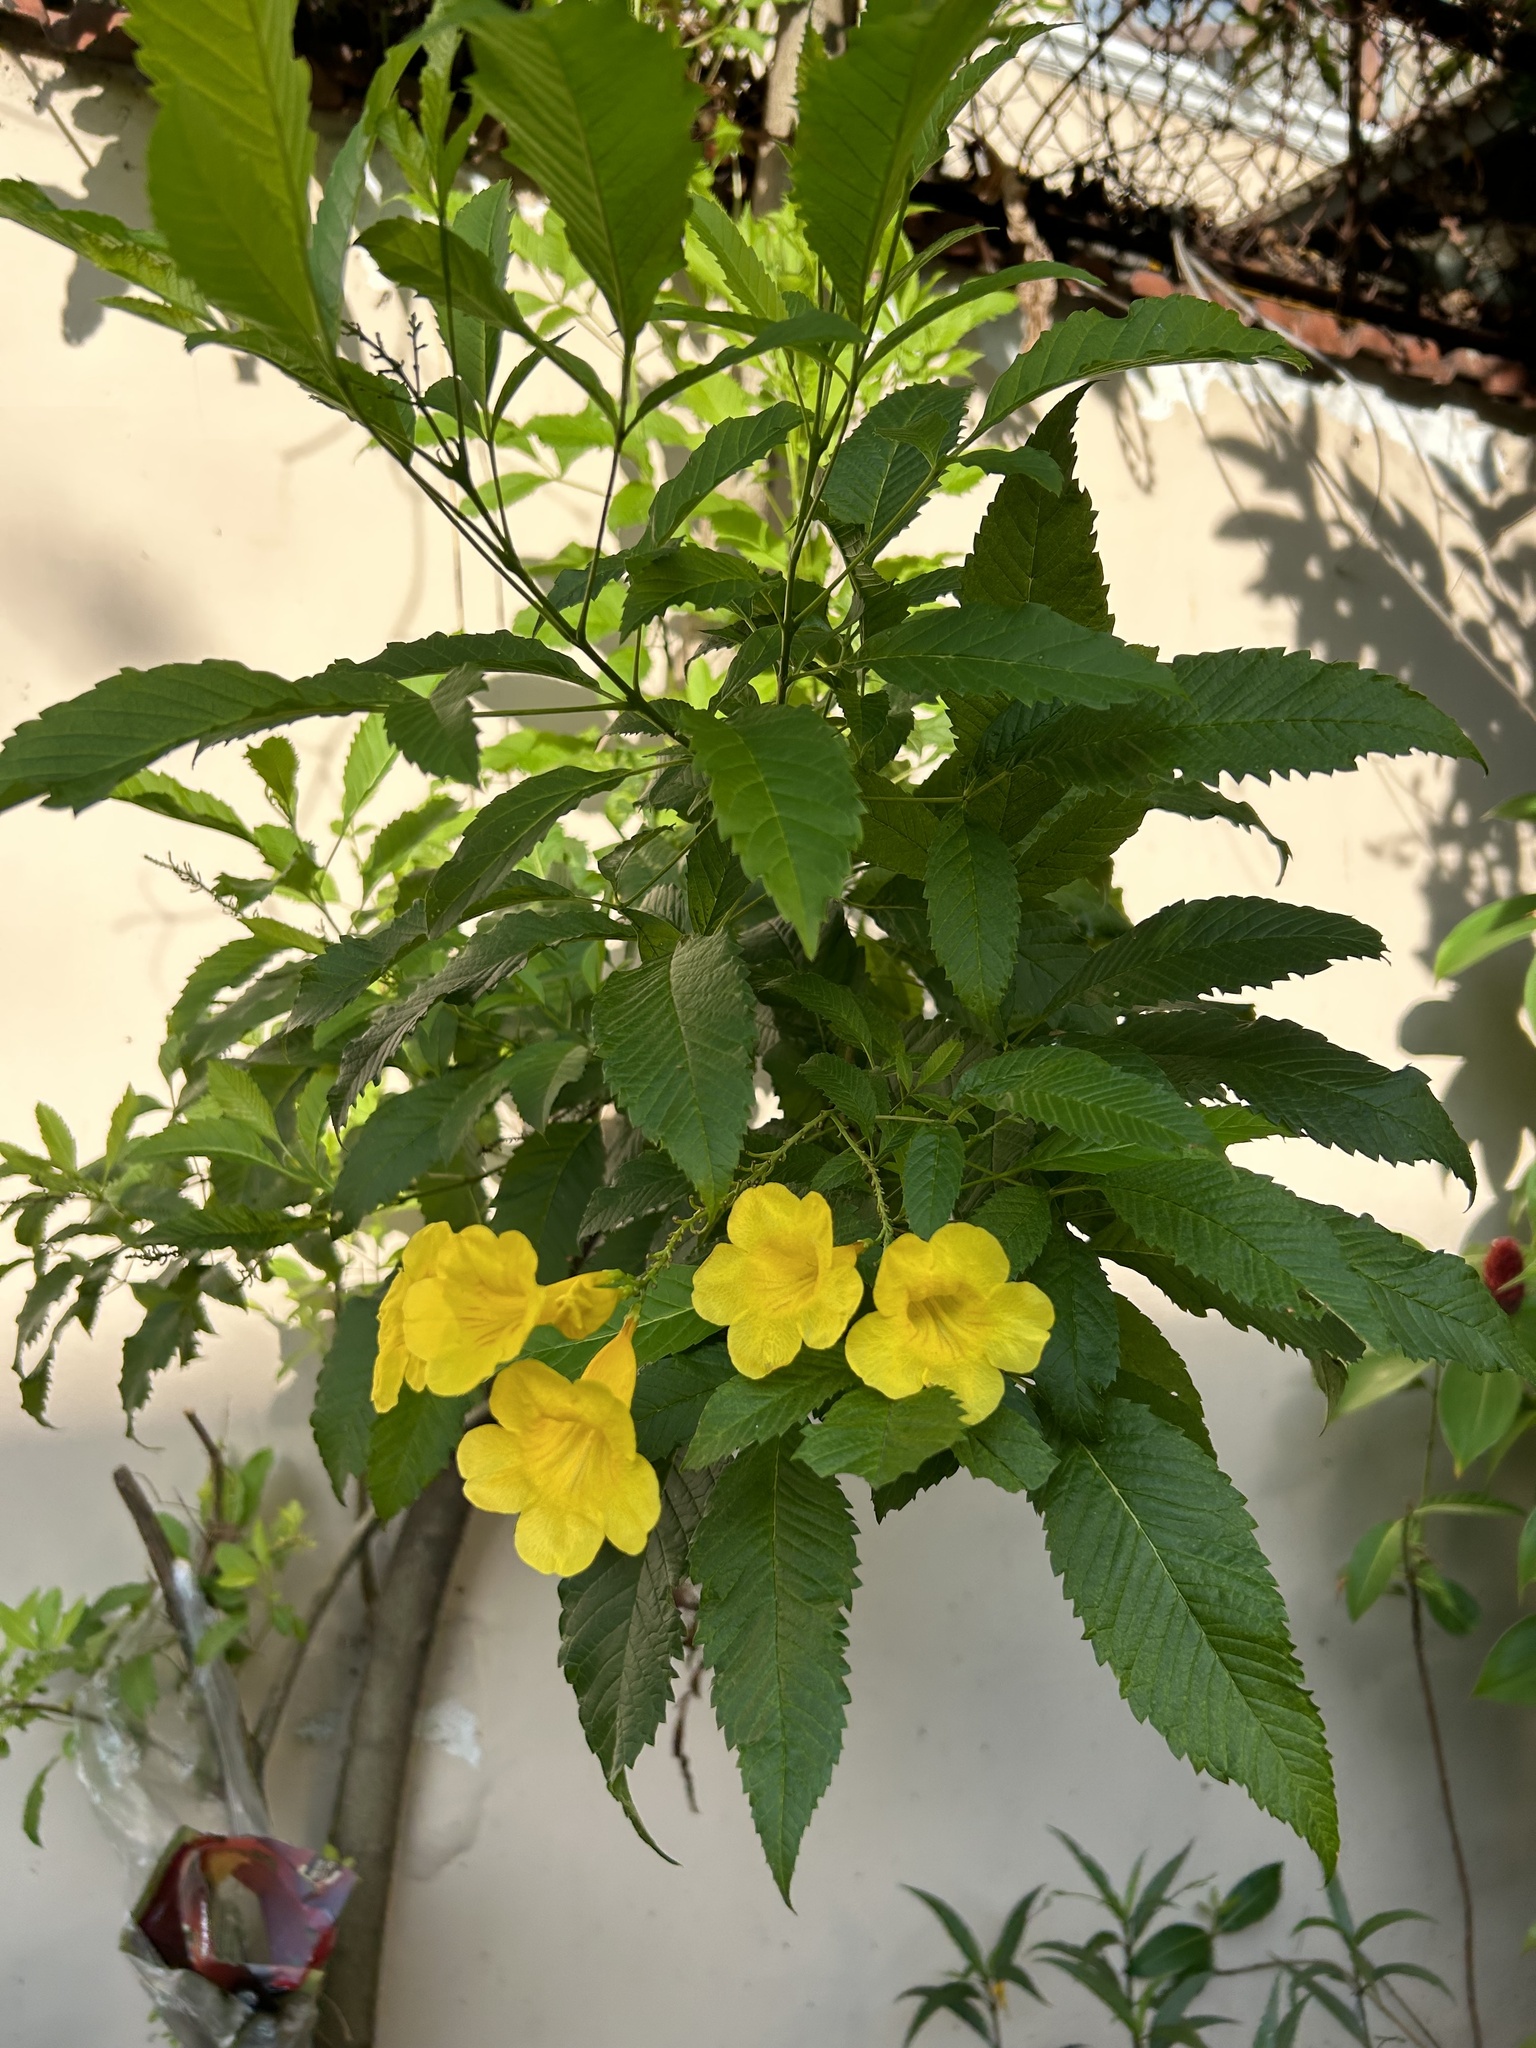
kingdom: Plantae
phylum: Tracheophyta
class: Magnoliopsida
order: Lamiales
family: Bignoniaceae
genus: Tecoma
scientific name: Tecoma stans
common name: Yellow trumpetbush
